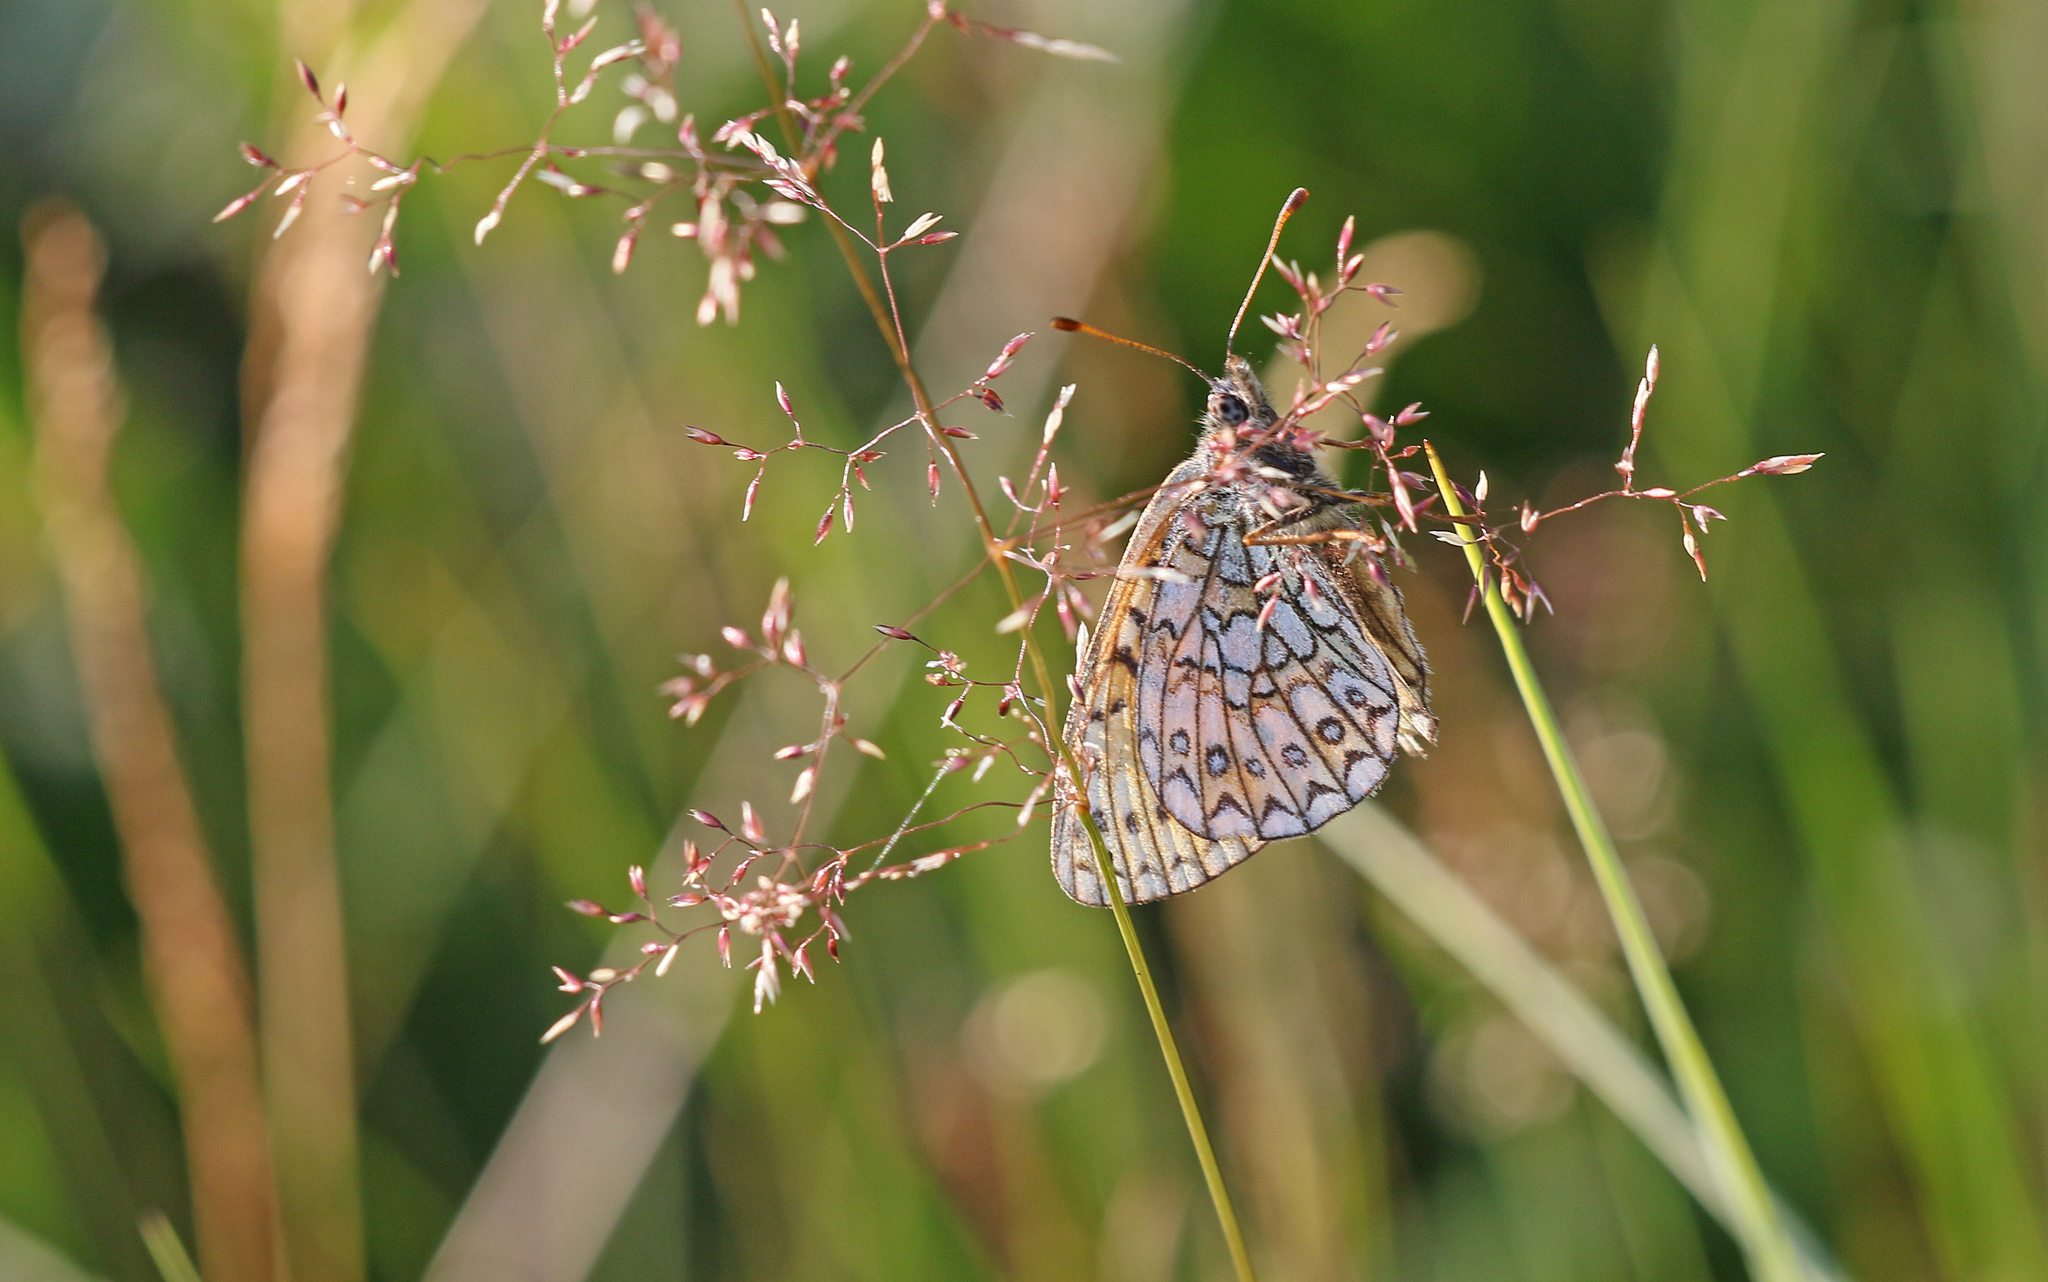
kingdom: Animalia
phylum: Arthropoda
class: Insecta
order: Lepidoptera
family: Nymphalidae
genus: Boloria
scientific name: Boloria eunomia
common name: Bog fritillary
